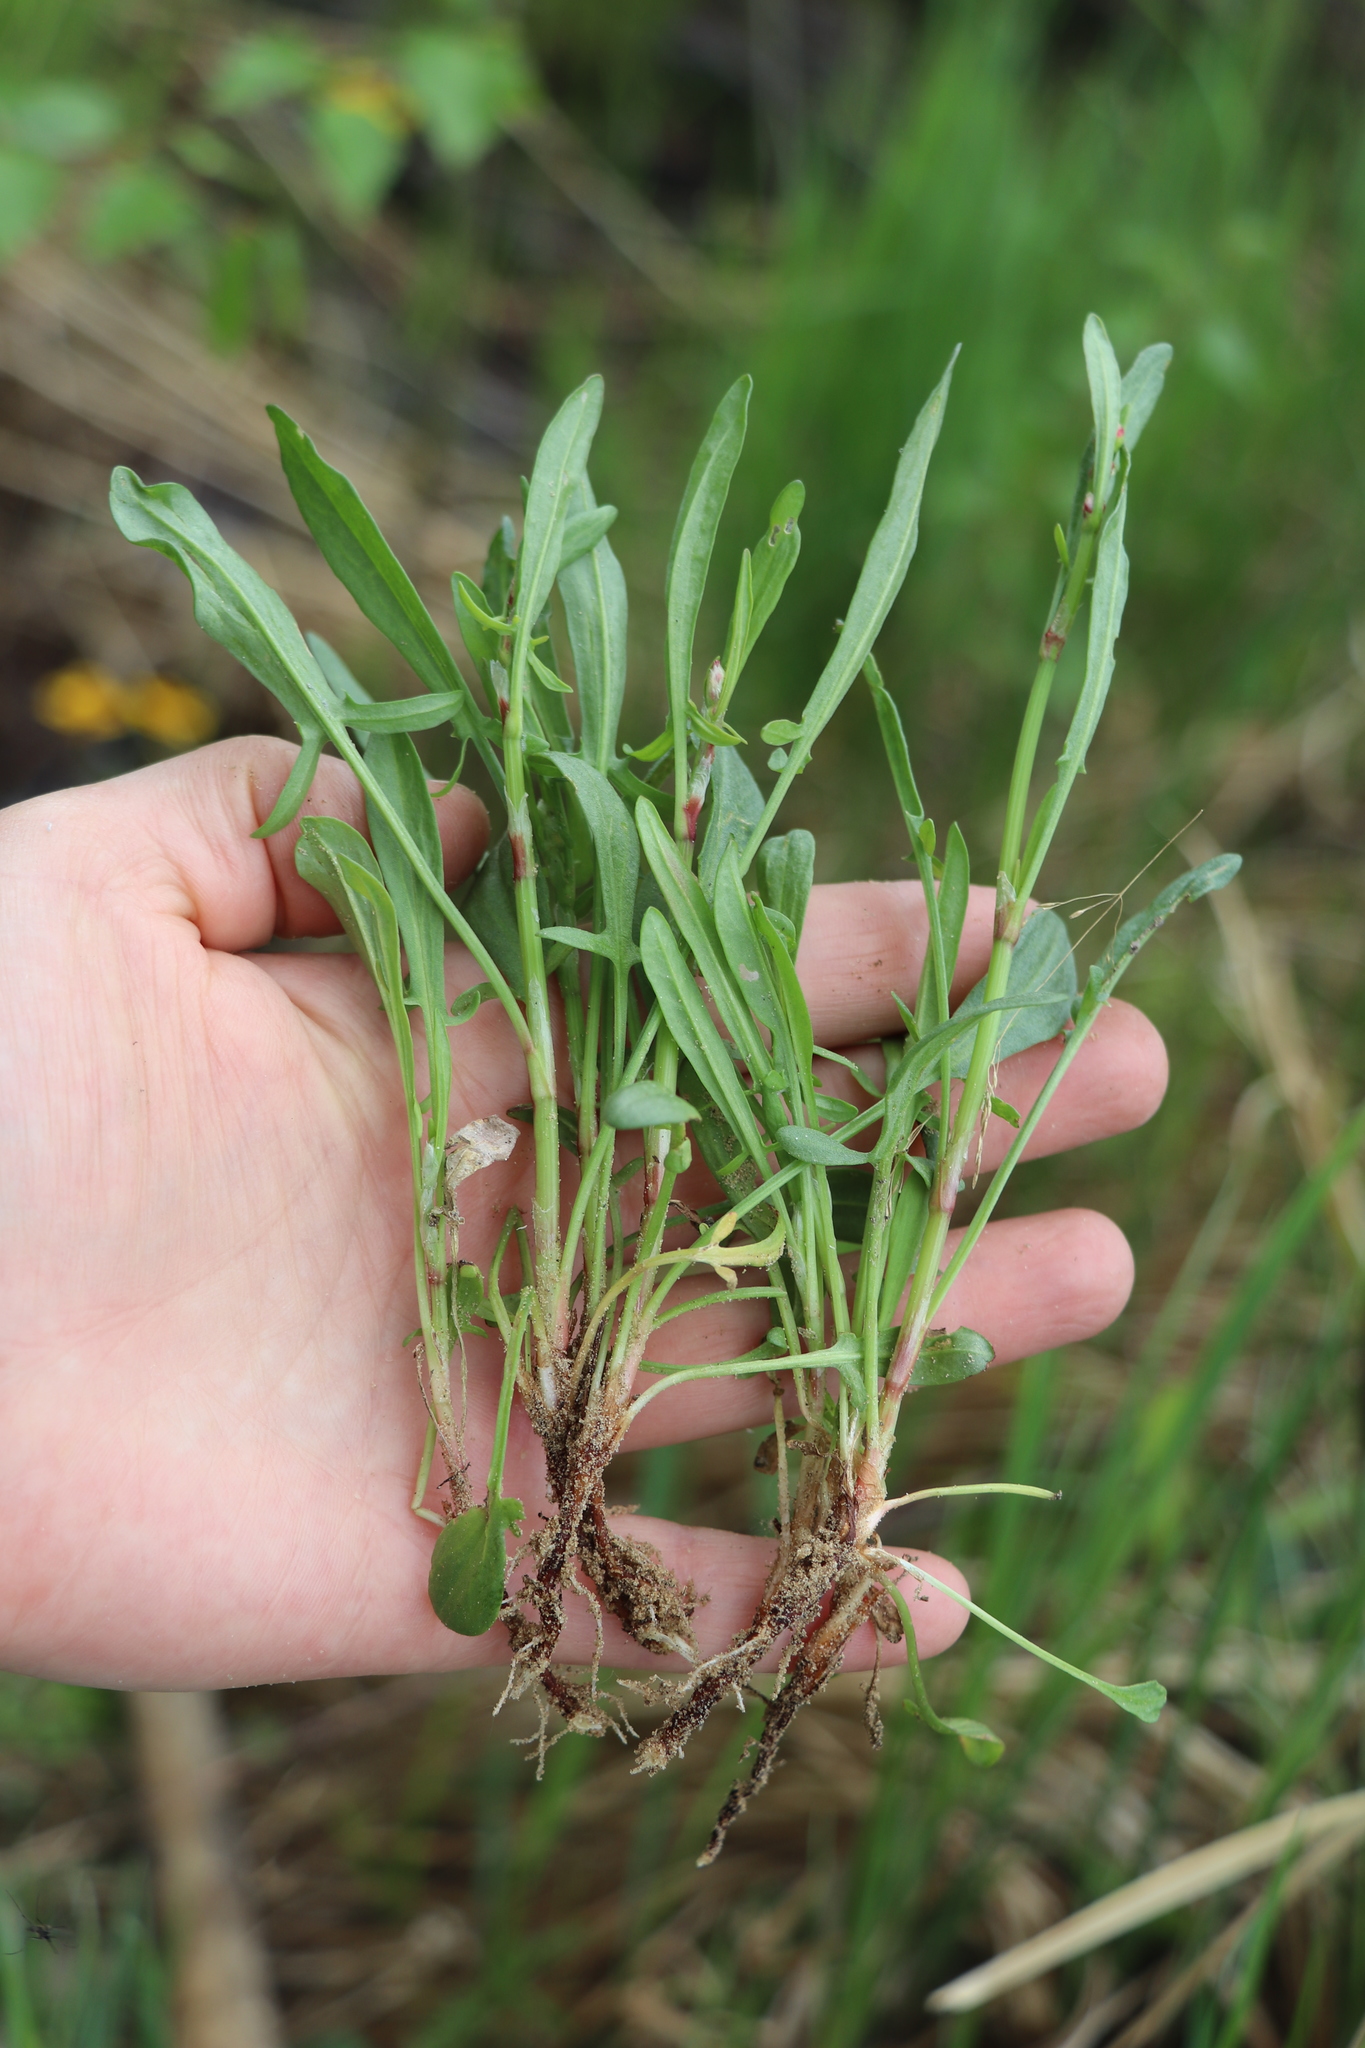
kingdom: Plantae
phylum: Tracheophyta
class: Magnoliopsida
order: Caryophyllales
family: Polygonaceae
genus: Rumex
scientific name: Rumex acetosella
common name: Common sheep sorrel
